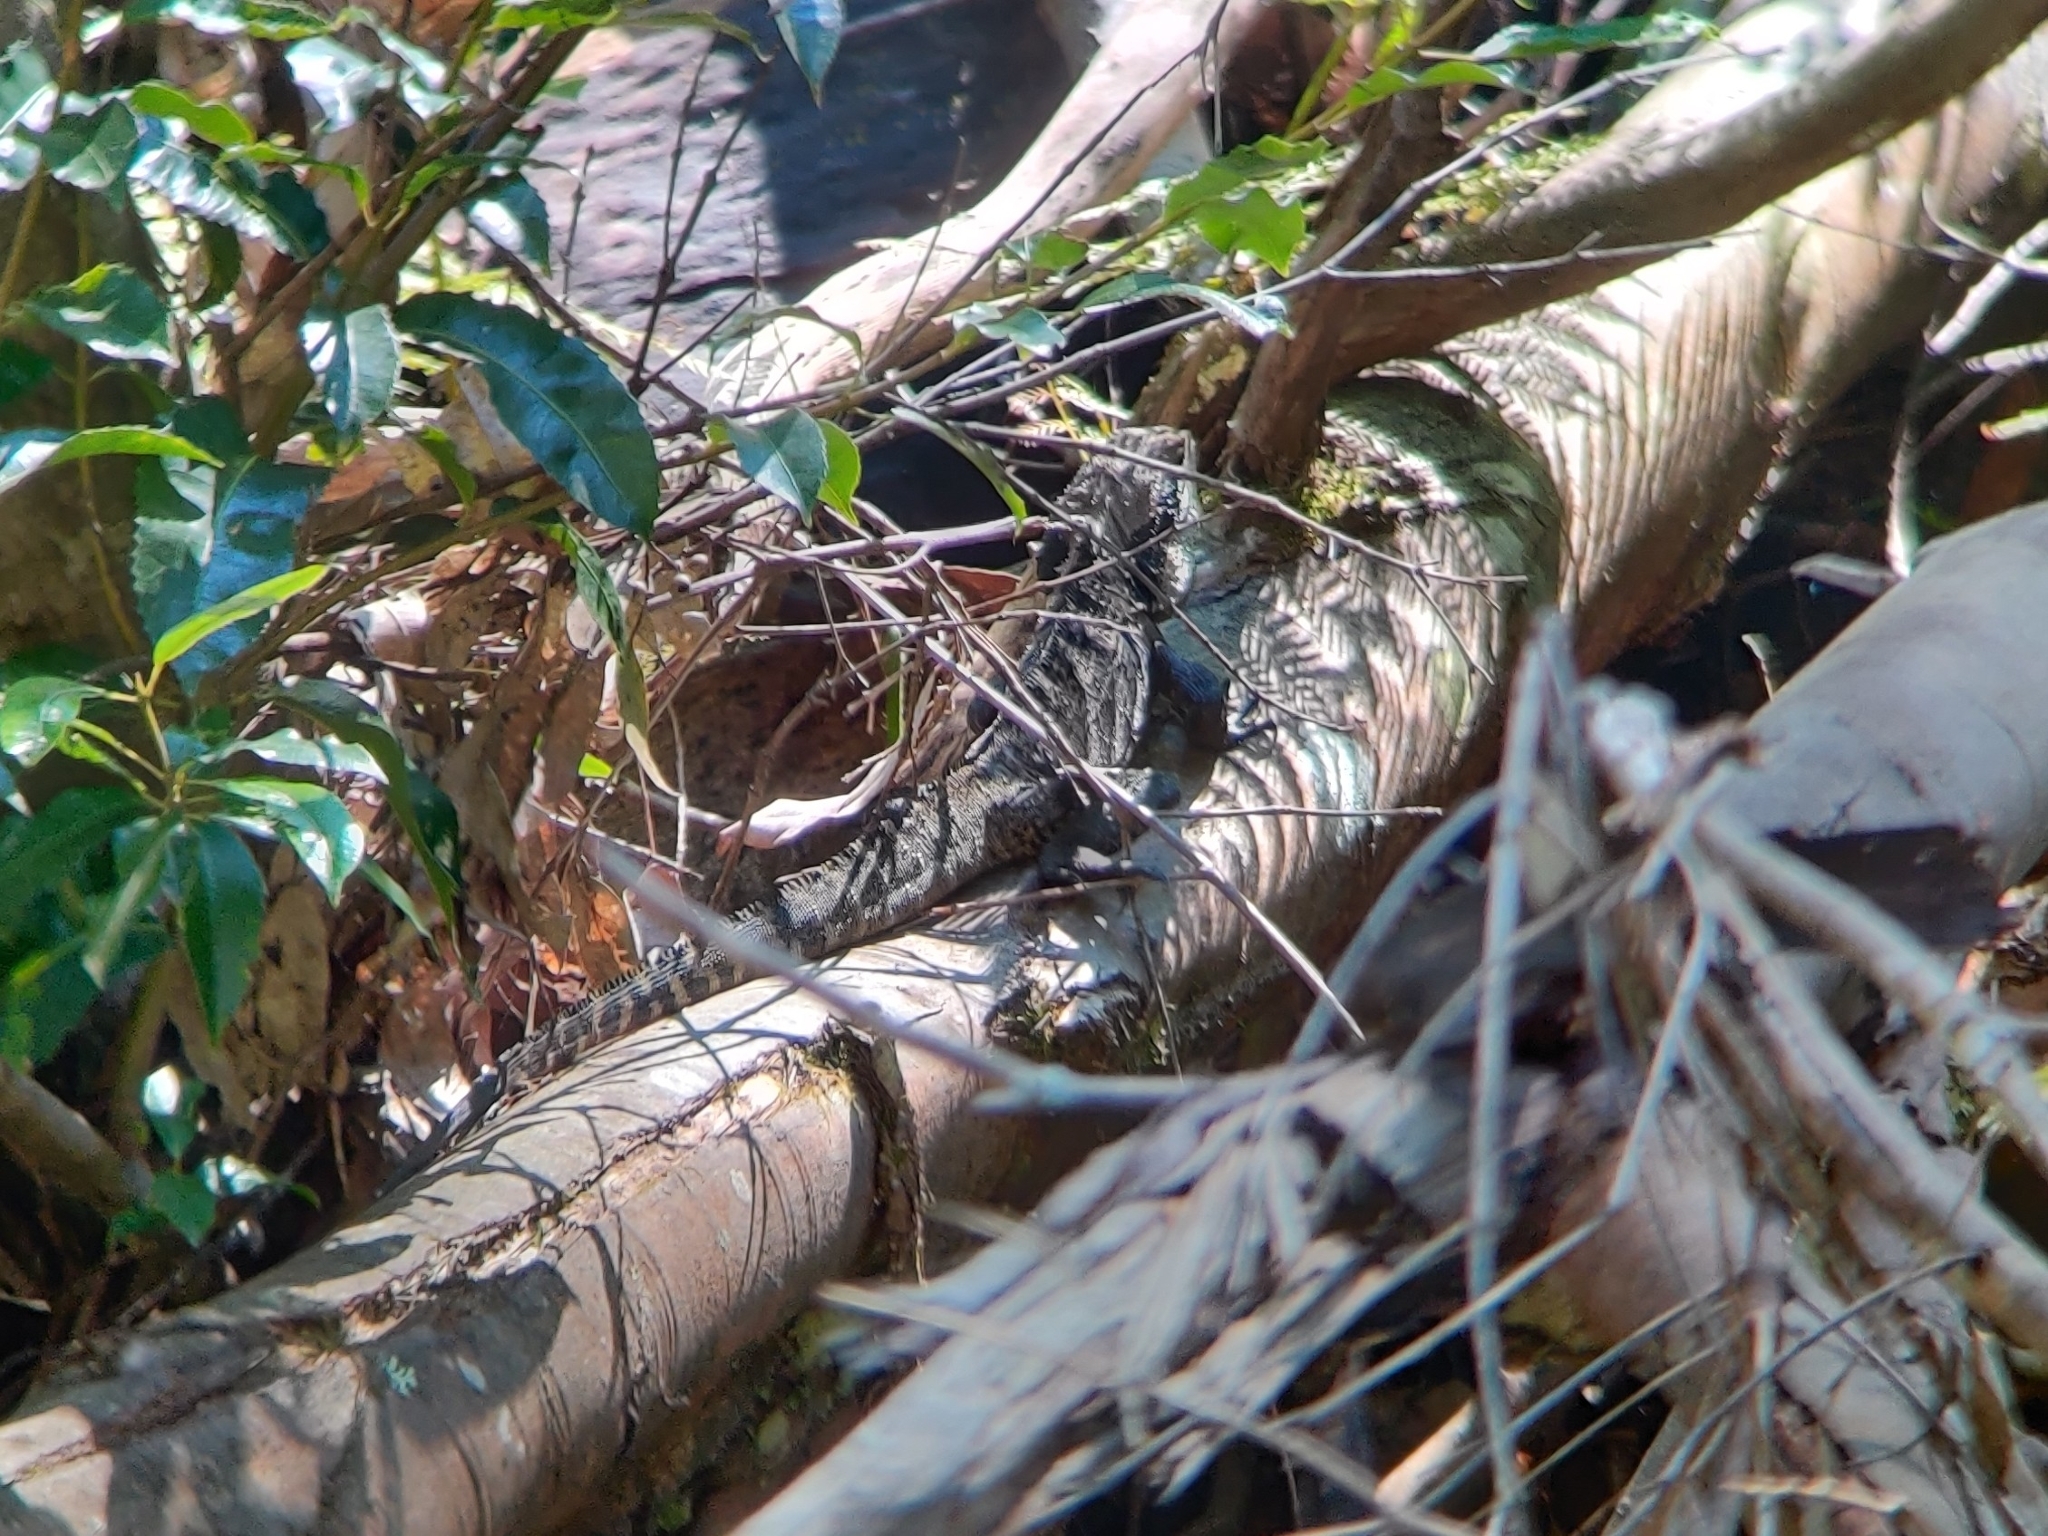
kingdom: Animalia
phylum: Chordata
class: Squamata
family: Agamidae
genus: Intellagama
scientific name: Intellagama lesueurii
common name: Eastern water dragon
